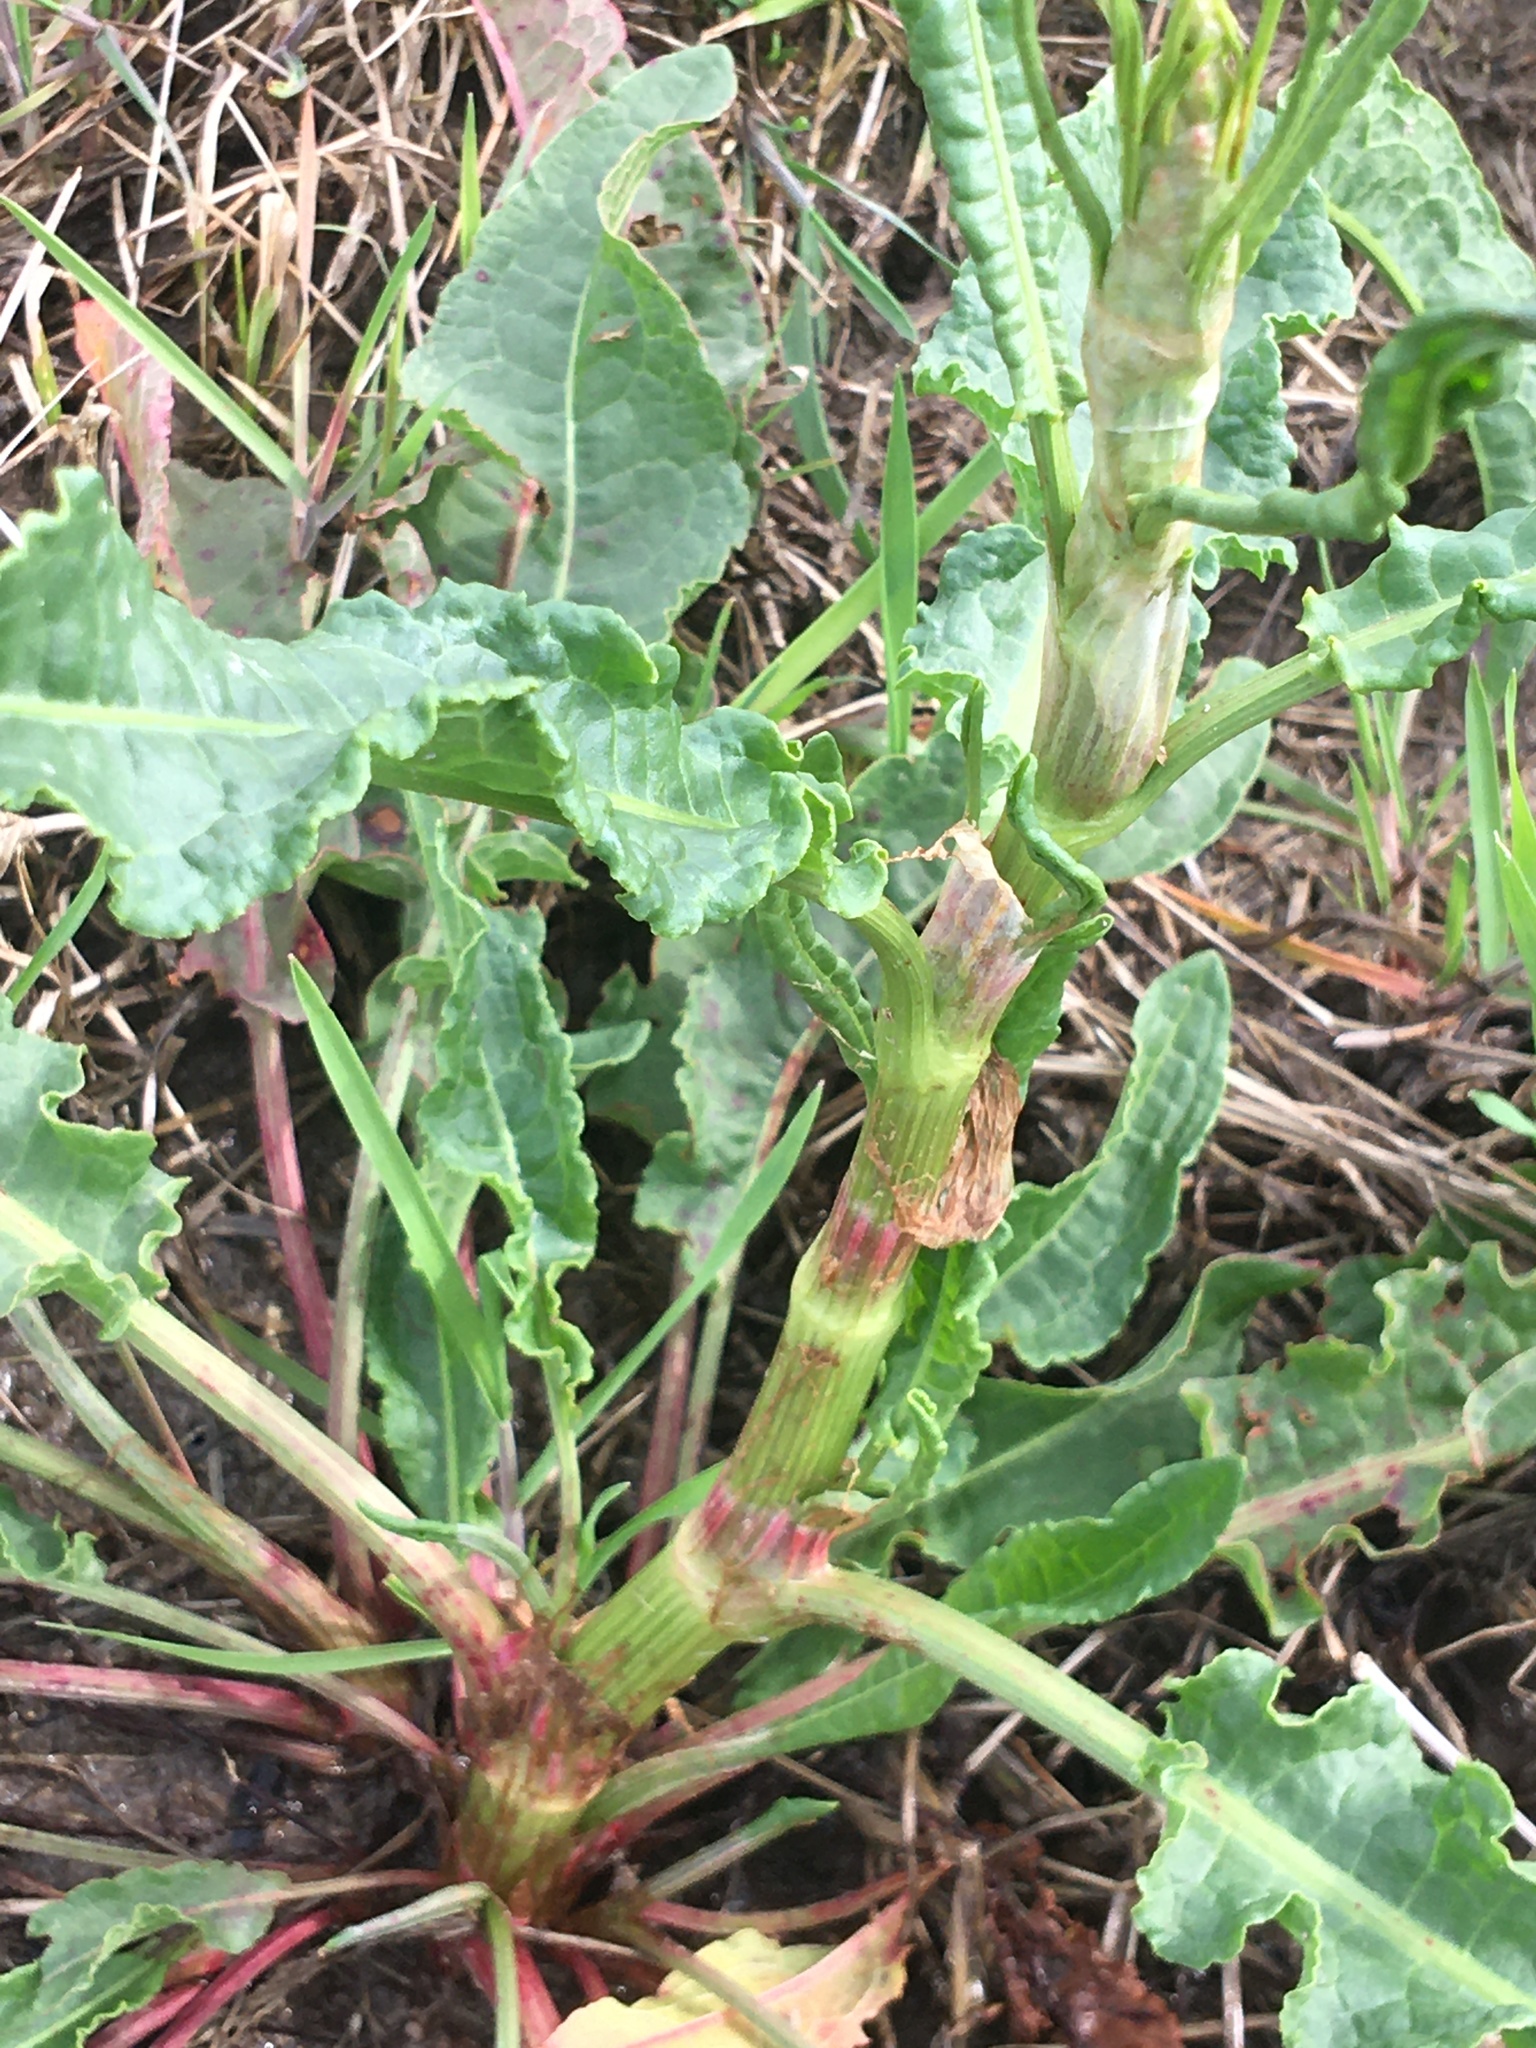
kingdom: Plantae
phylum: Tracheophyta
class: Magnoliopsida
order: Caryophyllales
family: Polygonaceae
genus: Rumex
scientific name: Rumex crispus
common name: Curled dock
